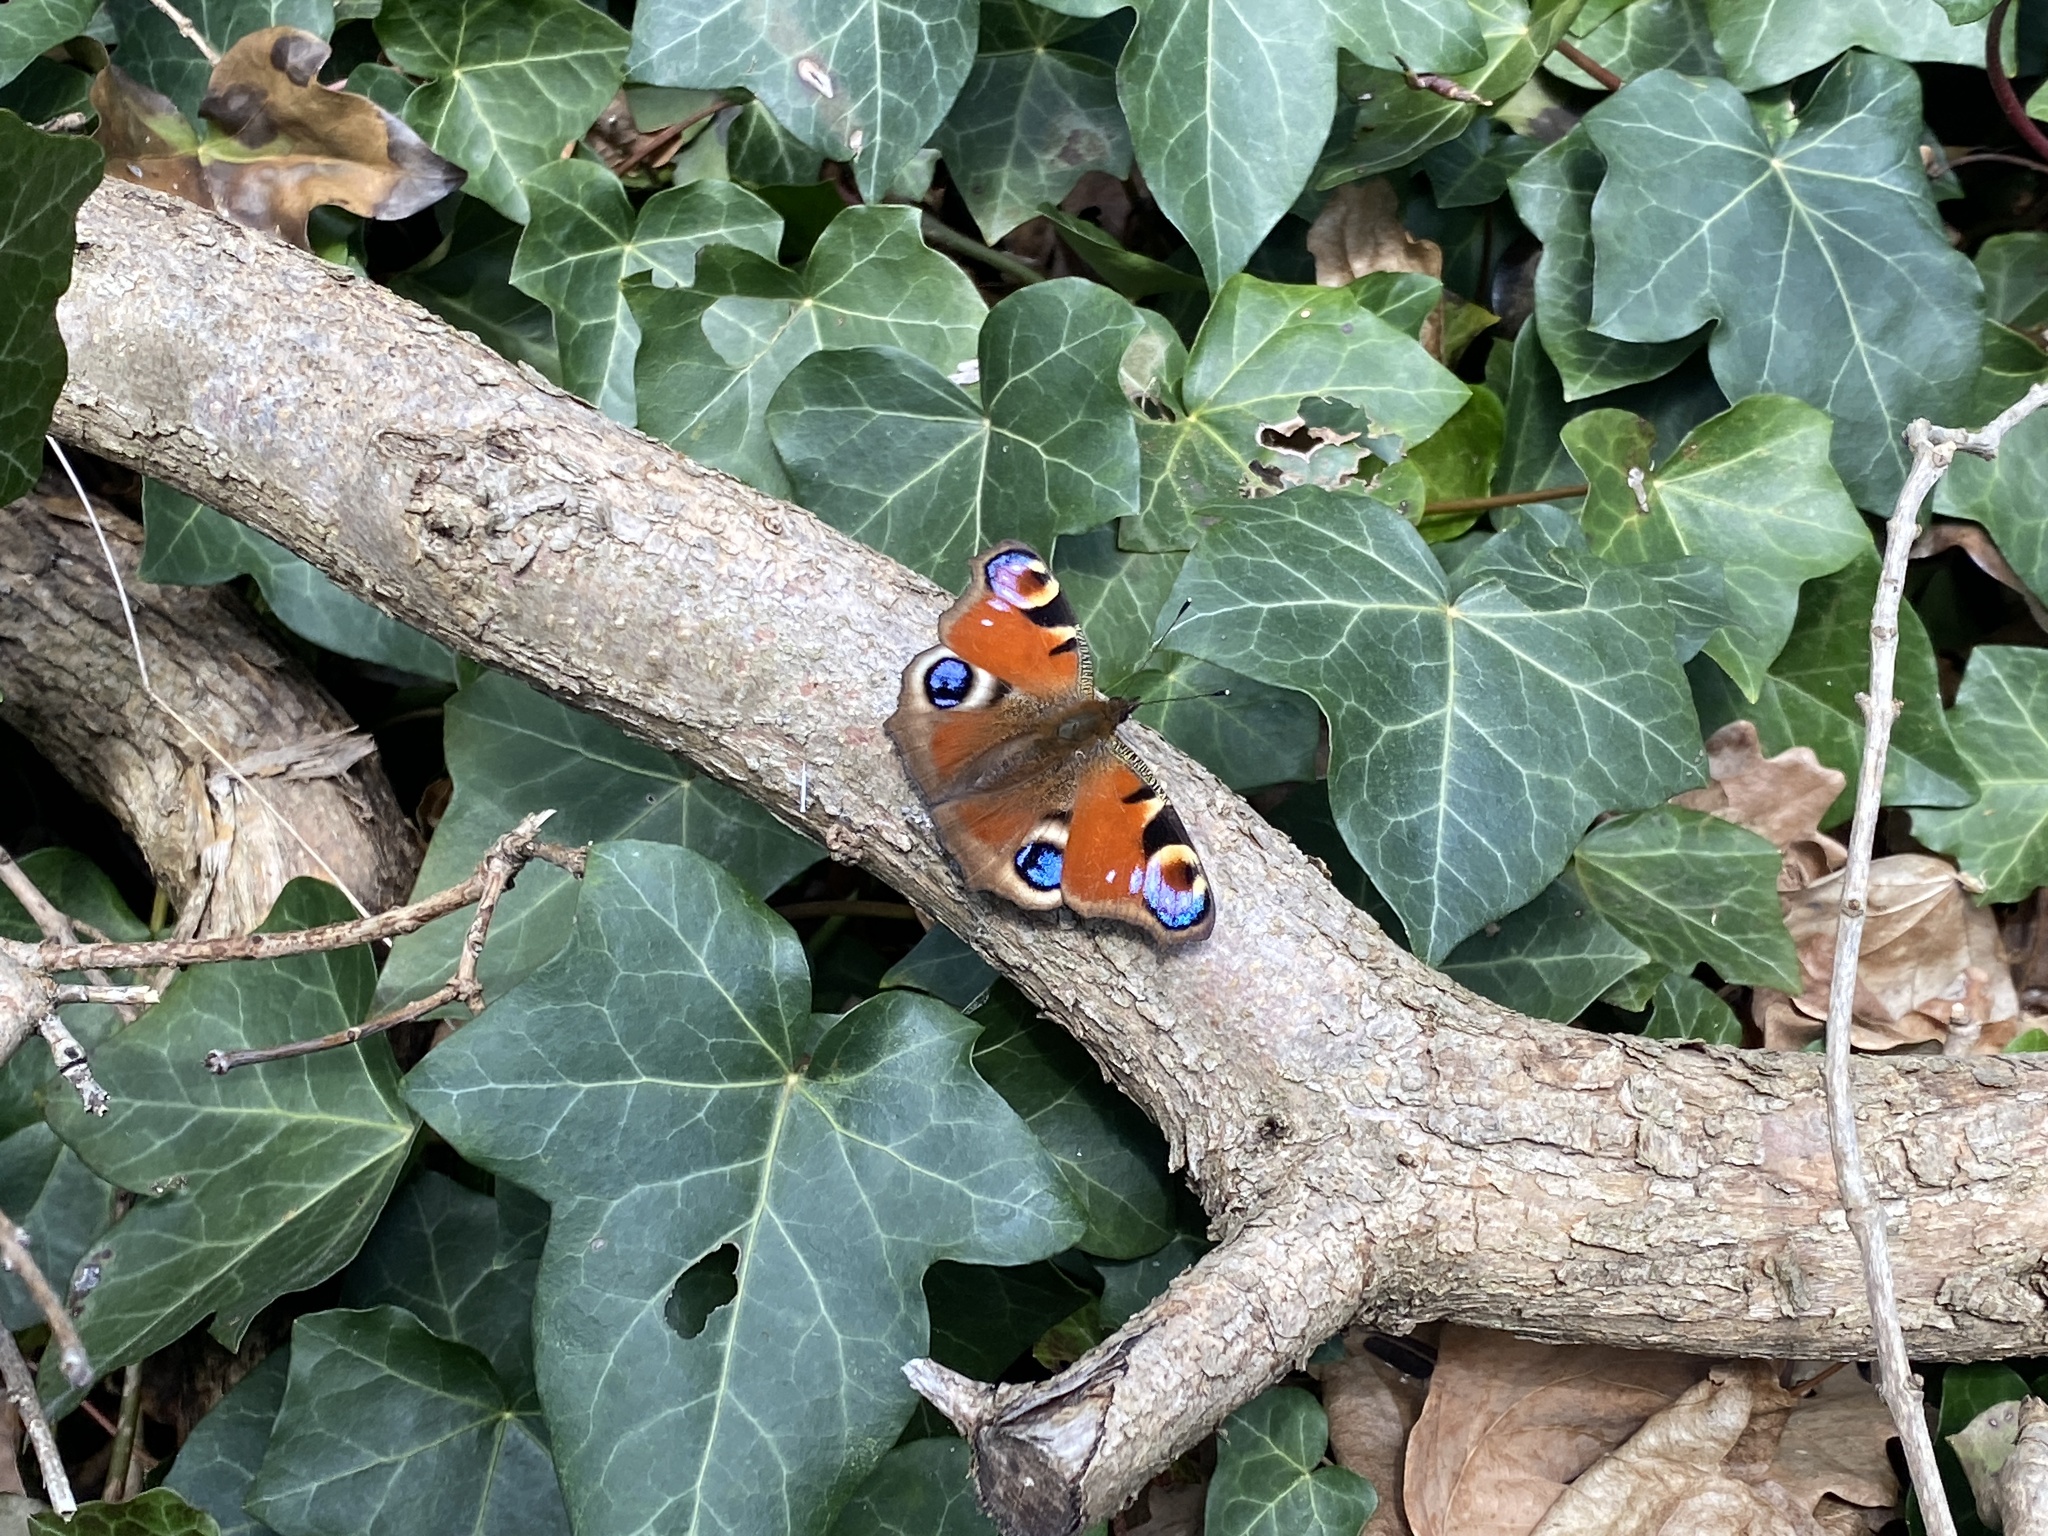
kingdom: Animalia
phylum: Arthropoda
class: Insecta
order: Lepidoptera
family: Nymphalidae
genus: Aglais
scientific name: Aglais io
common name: Peacock
